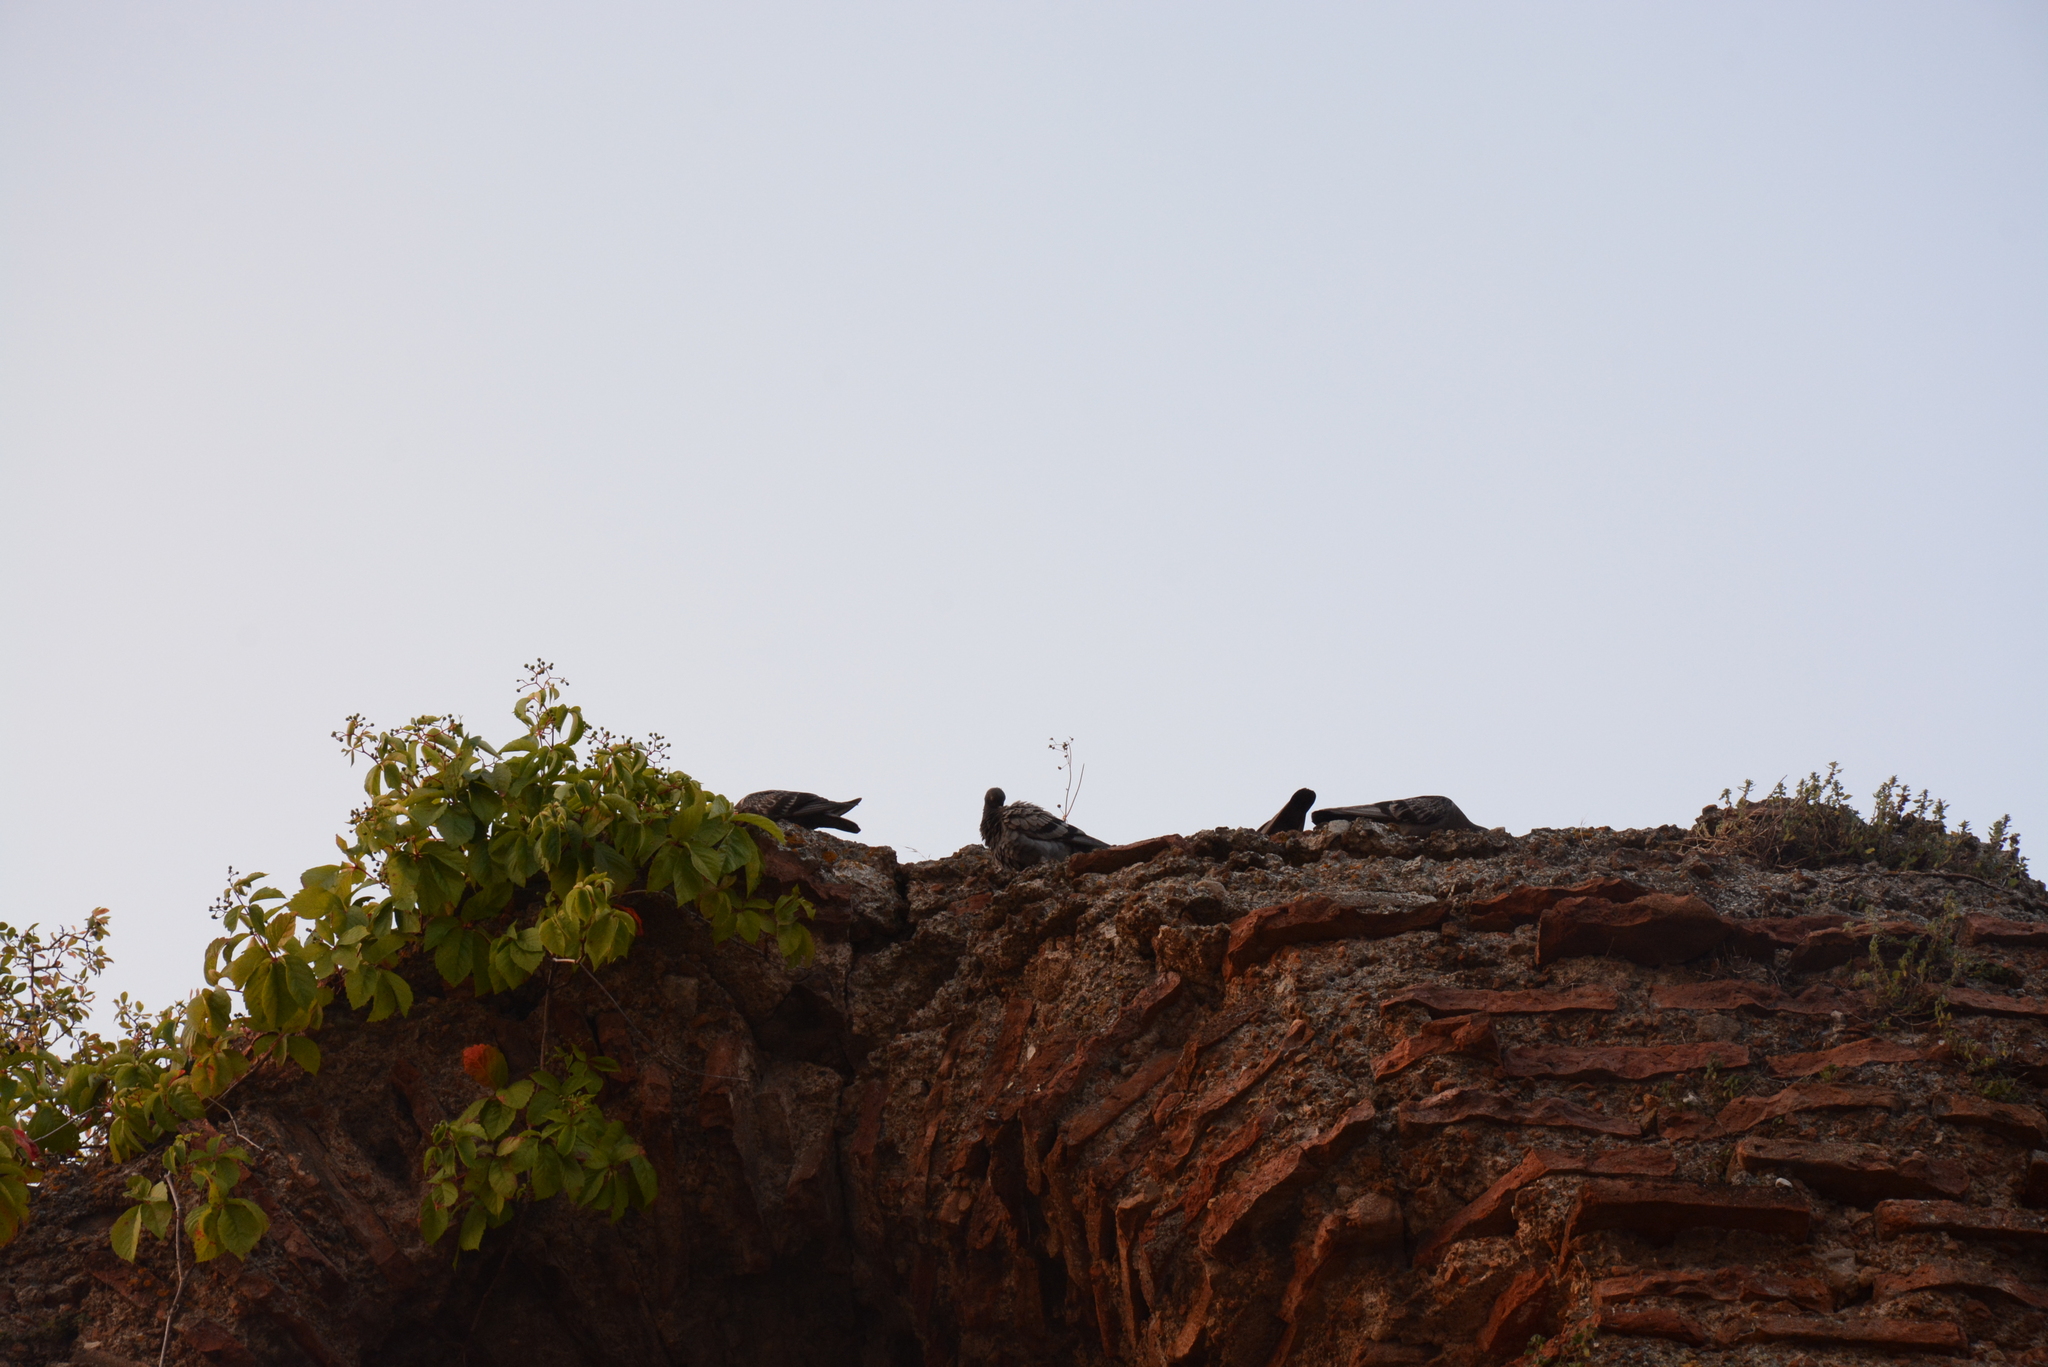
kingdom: Animalia
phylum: Chordata
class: Aves
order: Columbiformes
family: Columbidae
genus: Columba
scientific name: Columba livia
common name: Rock pigeon
